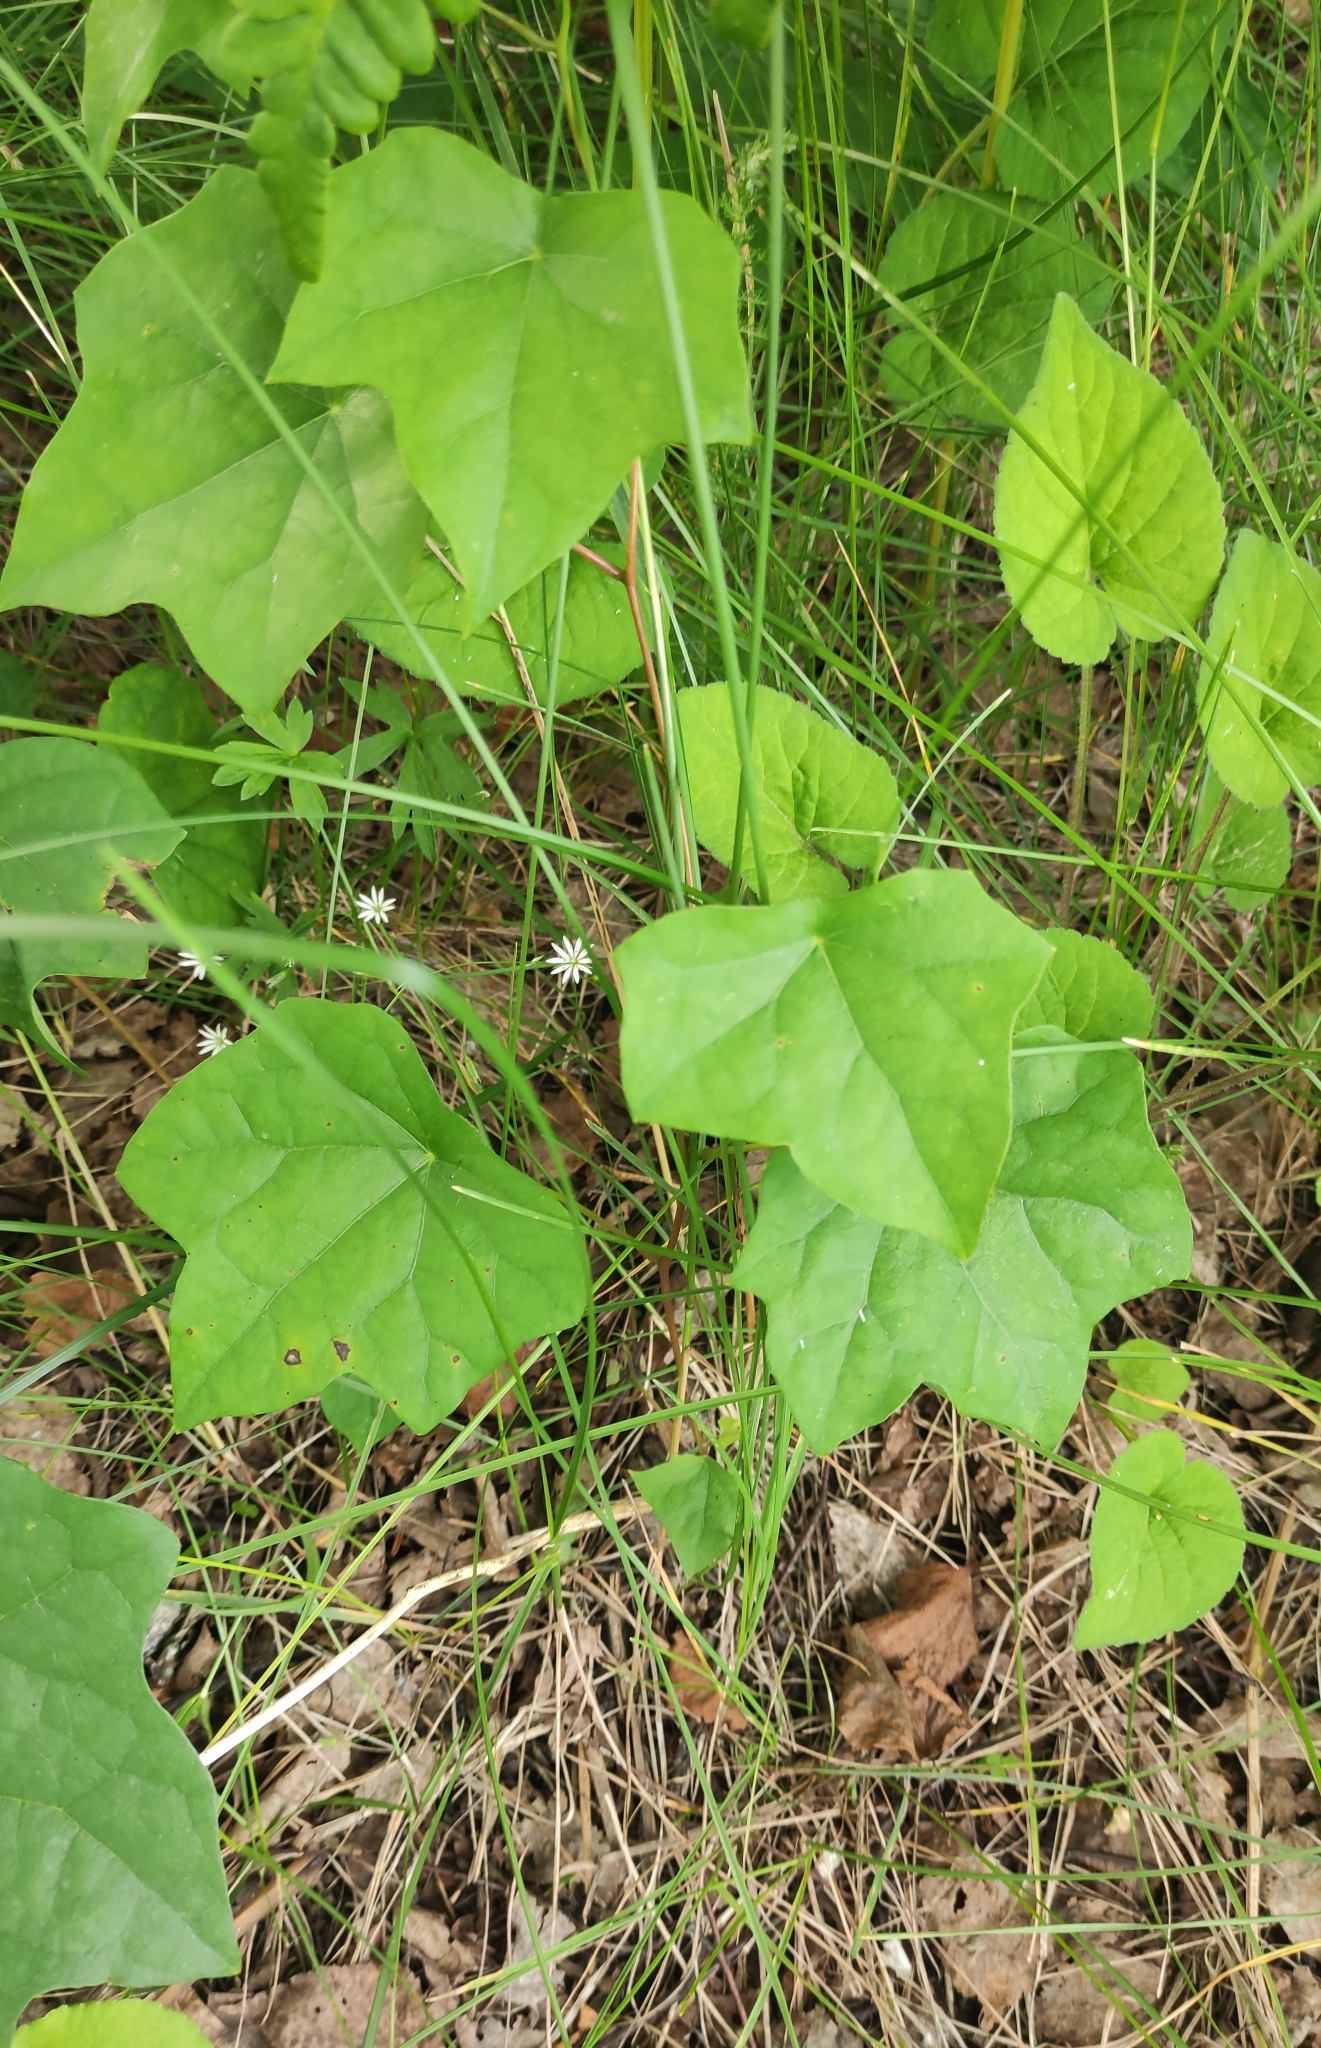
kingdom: Plantae
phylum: Tracheophyta
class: Magnoliopsida
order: Ranunculales
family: Menispermaceae
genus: Menispermum
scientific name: Menispermum dauricum
